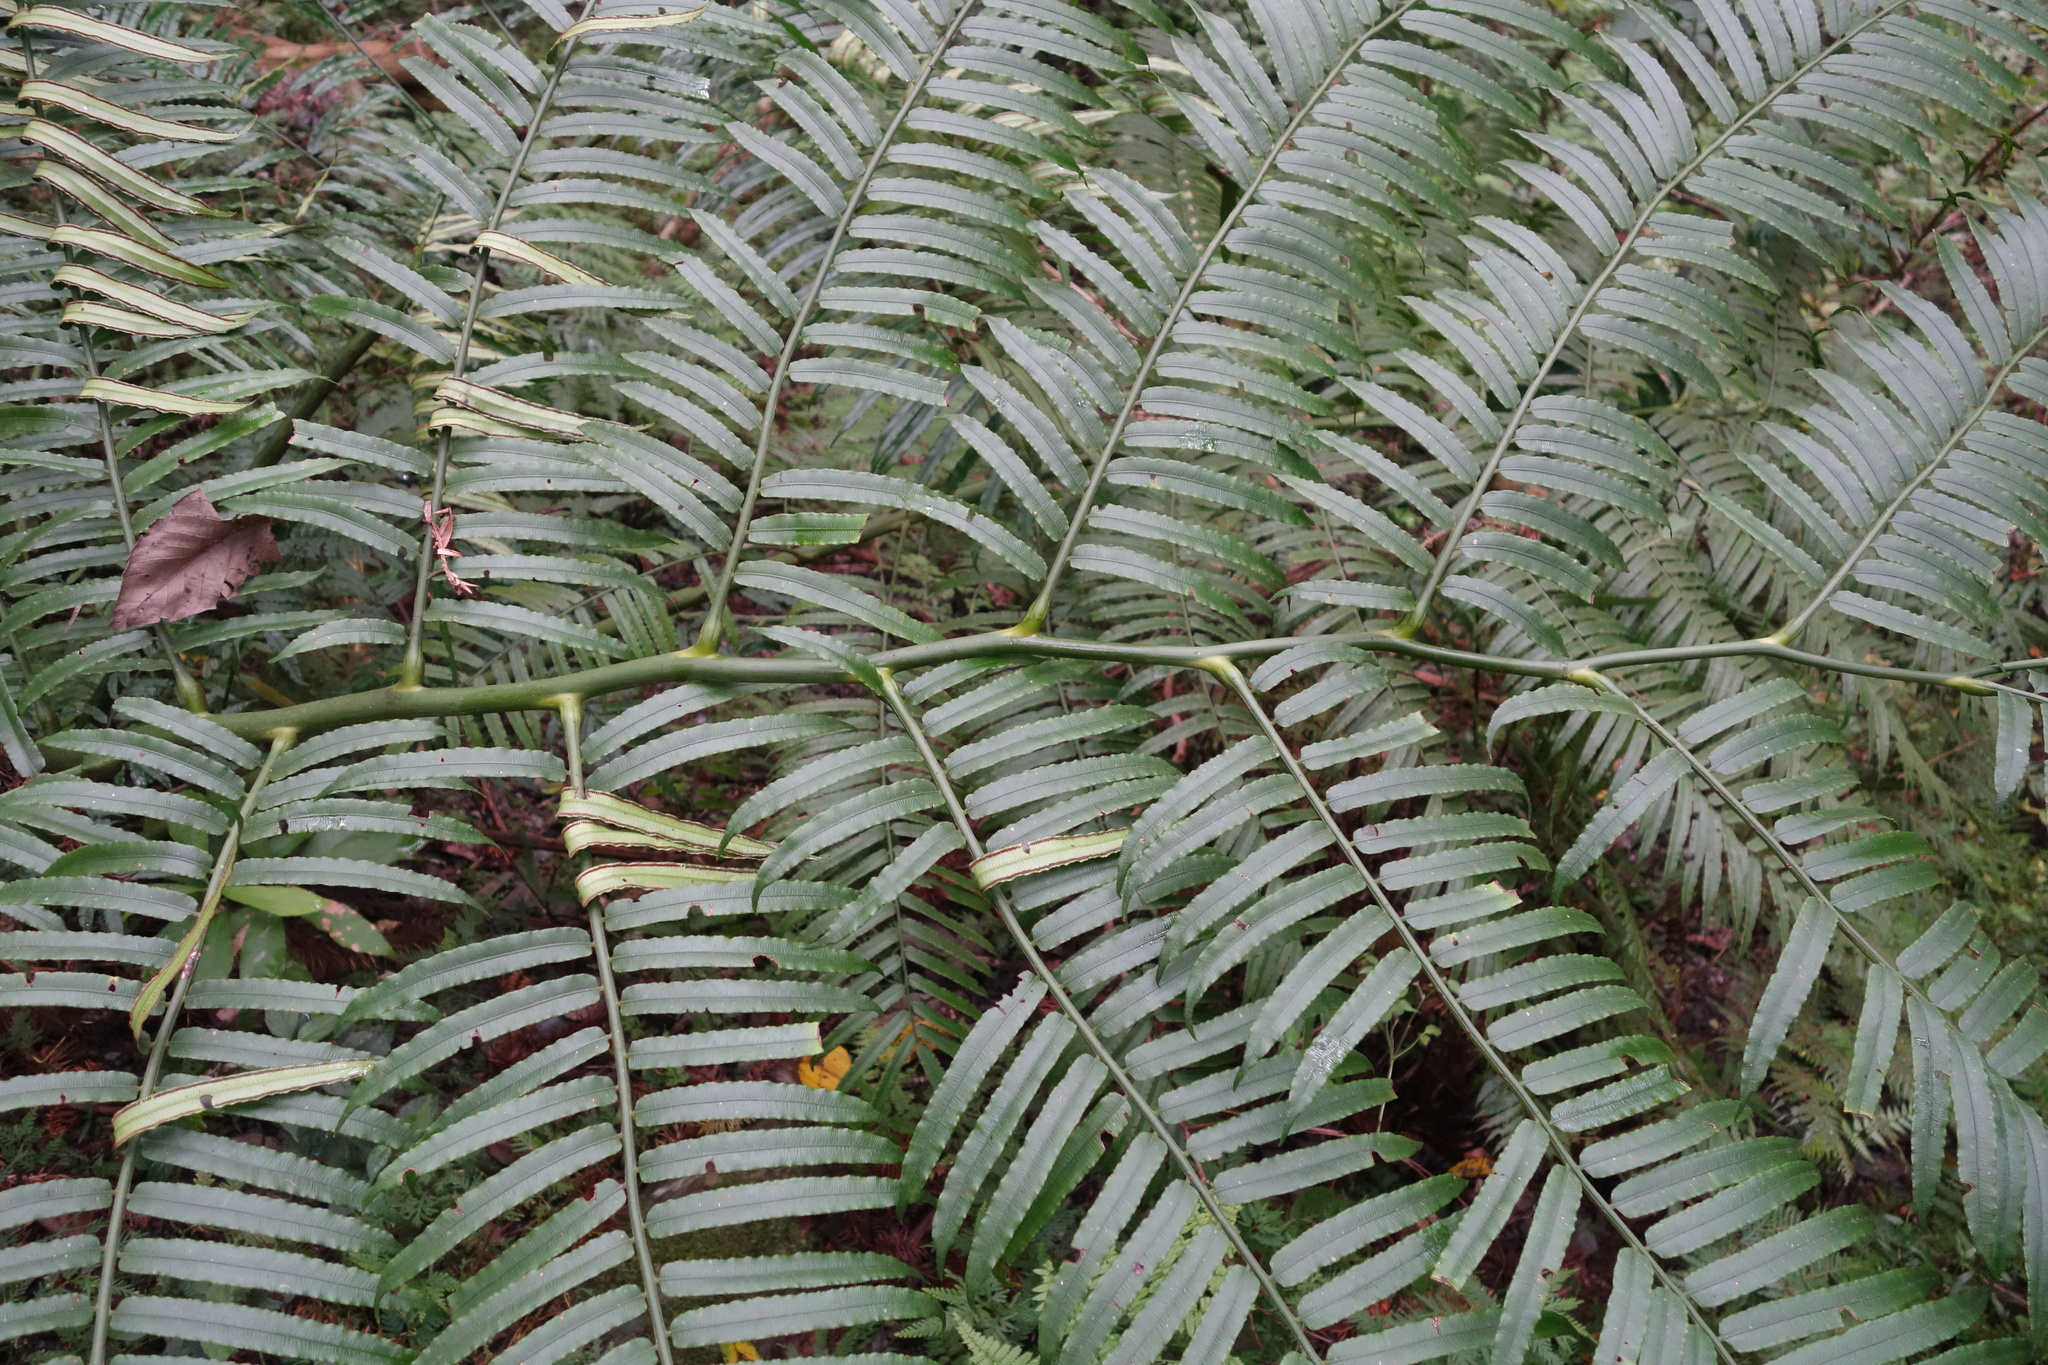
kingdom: Plantae
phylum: Tracheophyta
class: Polypodiopsida
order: Marattiales
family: Marattiaceae
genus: Angiopteris
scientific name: Angiopteris lygodiifolia
